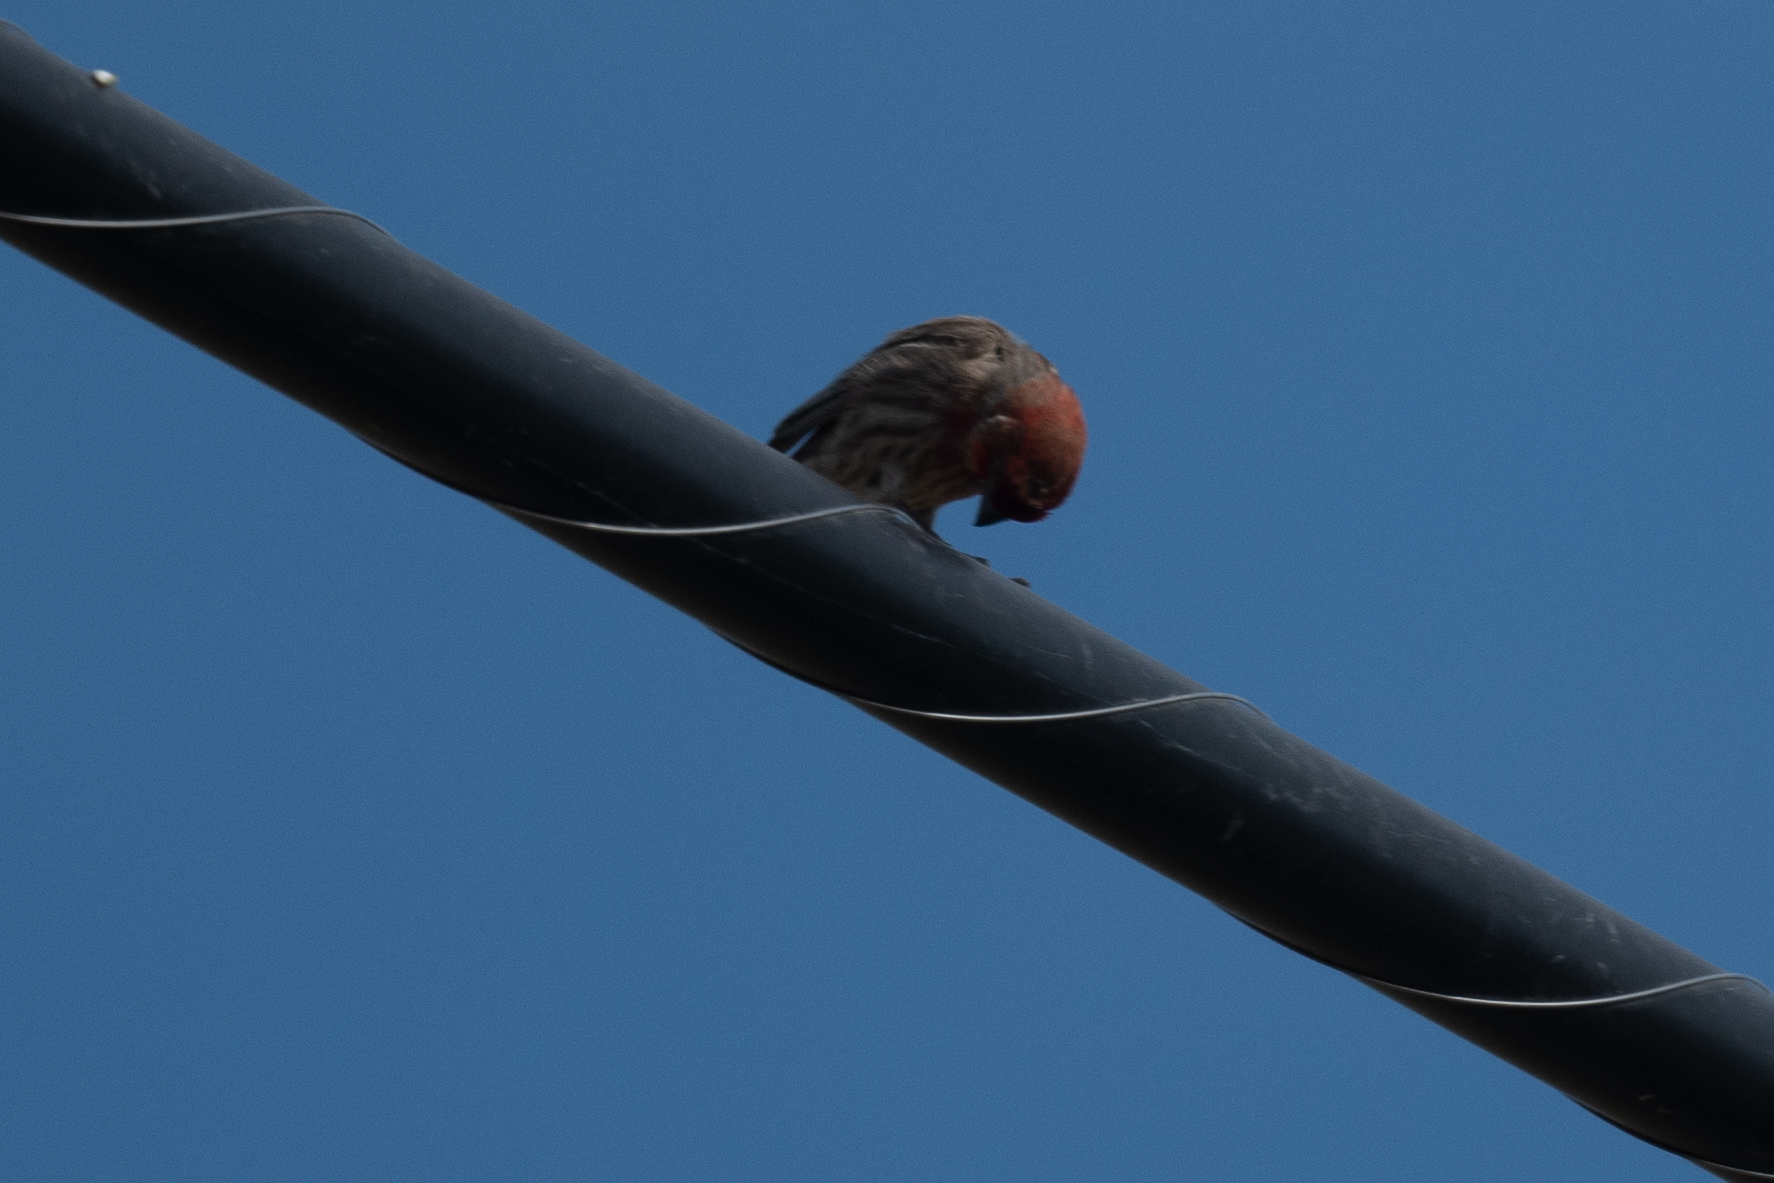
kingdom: Animalia
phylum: Chordata
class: Aves
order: Passeriformes
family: Fringillidae
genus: Haemorhous
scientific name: Haemorhous mexicanus
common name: House finch
